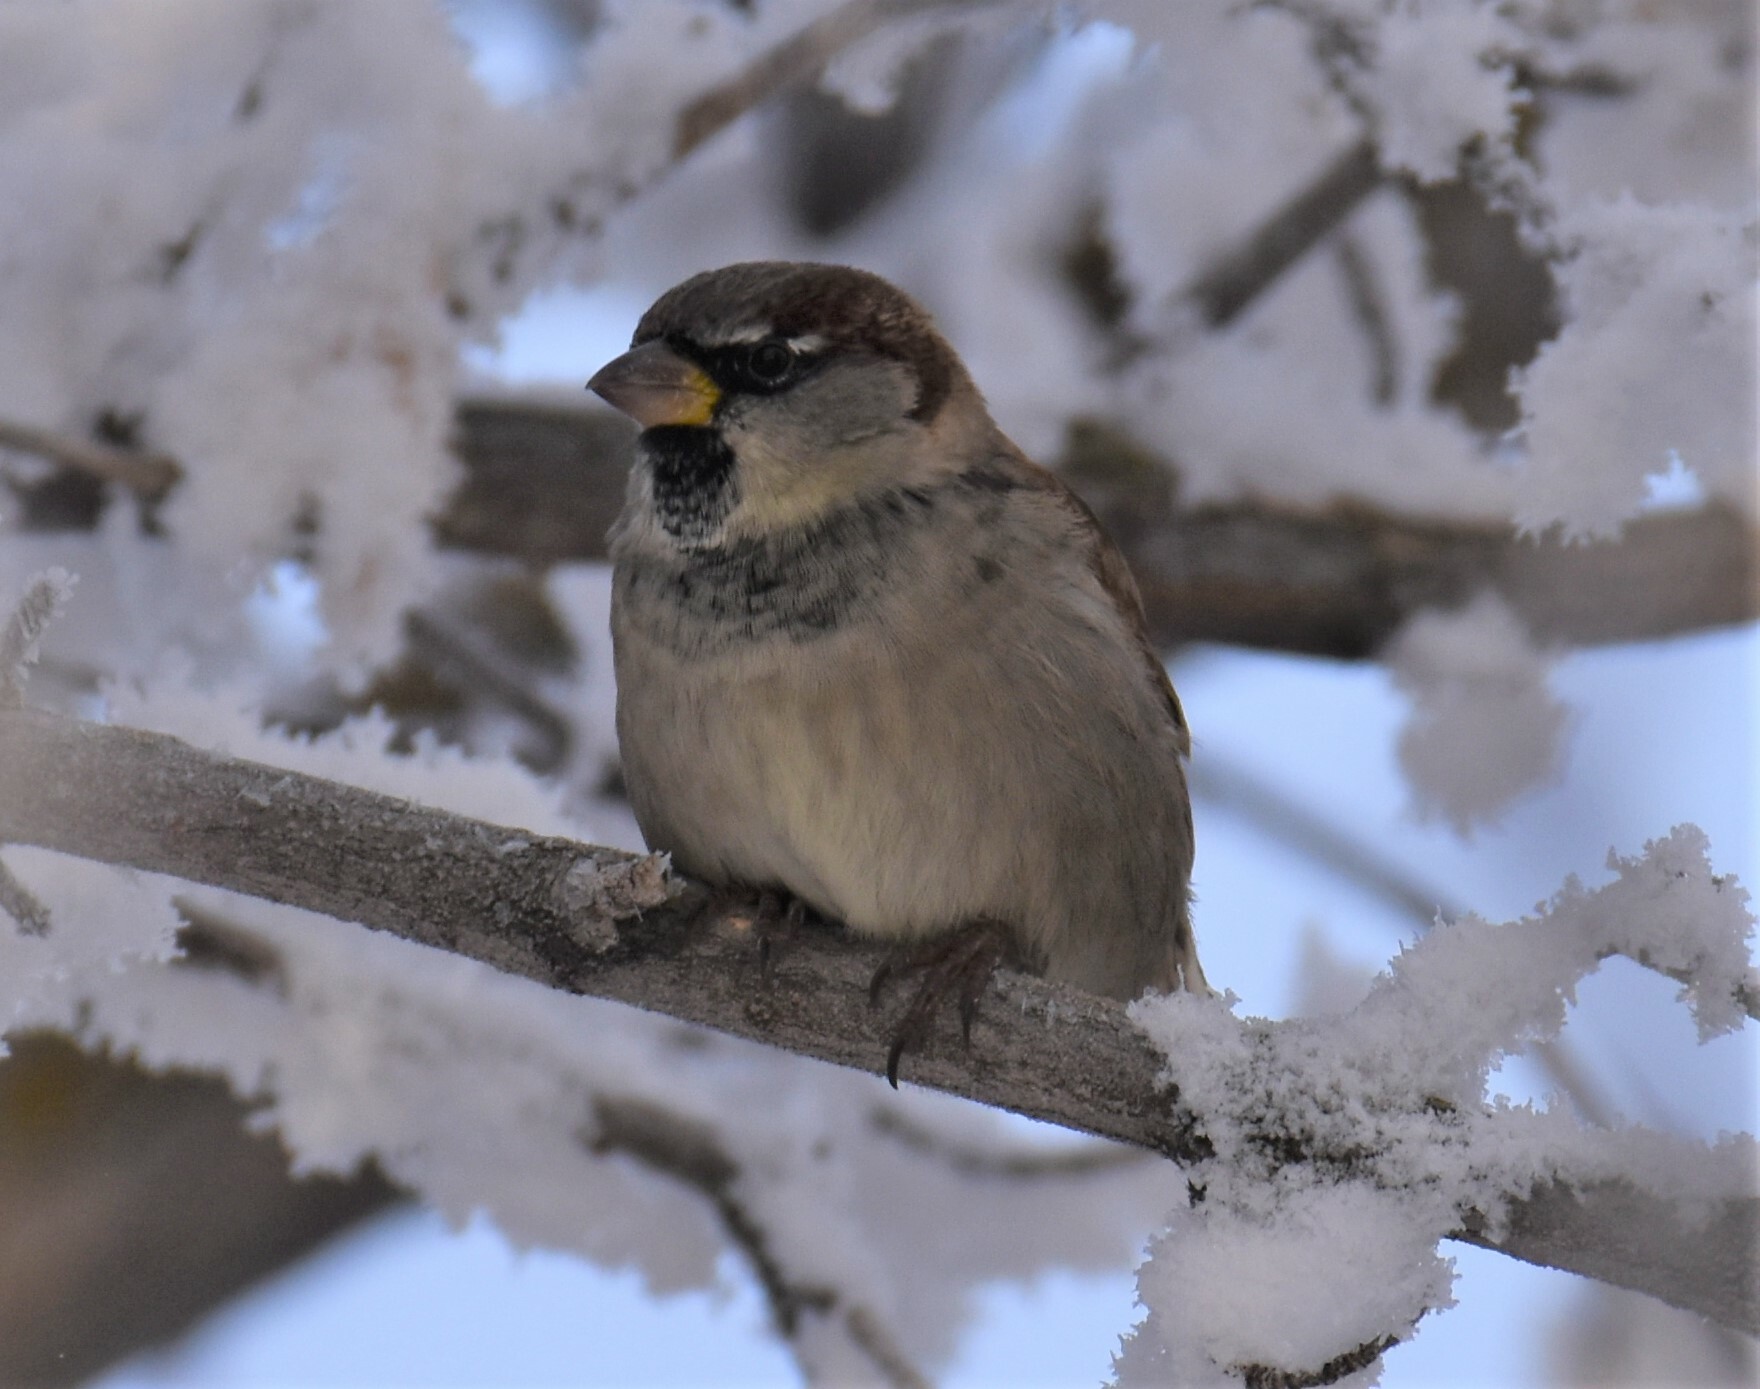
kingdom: Animalia
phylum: Chordata
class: Aves
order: Passeriformes
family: Passeridae
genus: Passer
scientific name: Passer domesticus
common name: House sparrow
